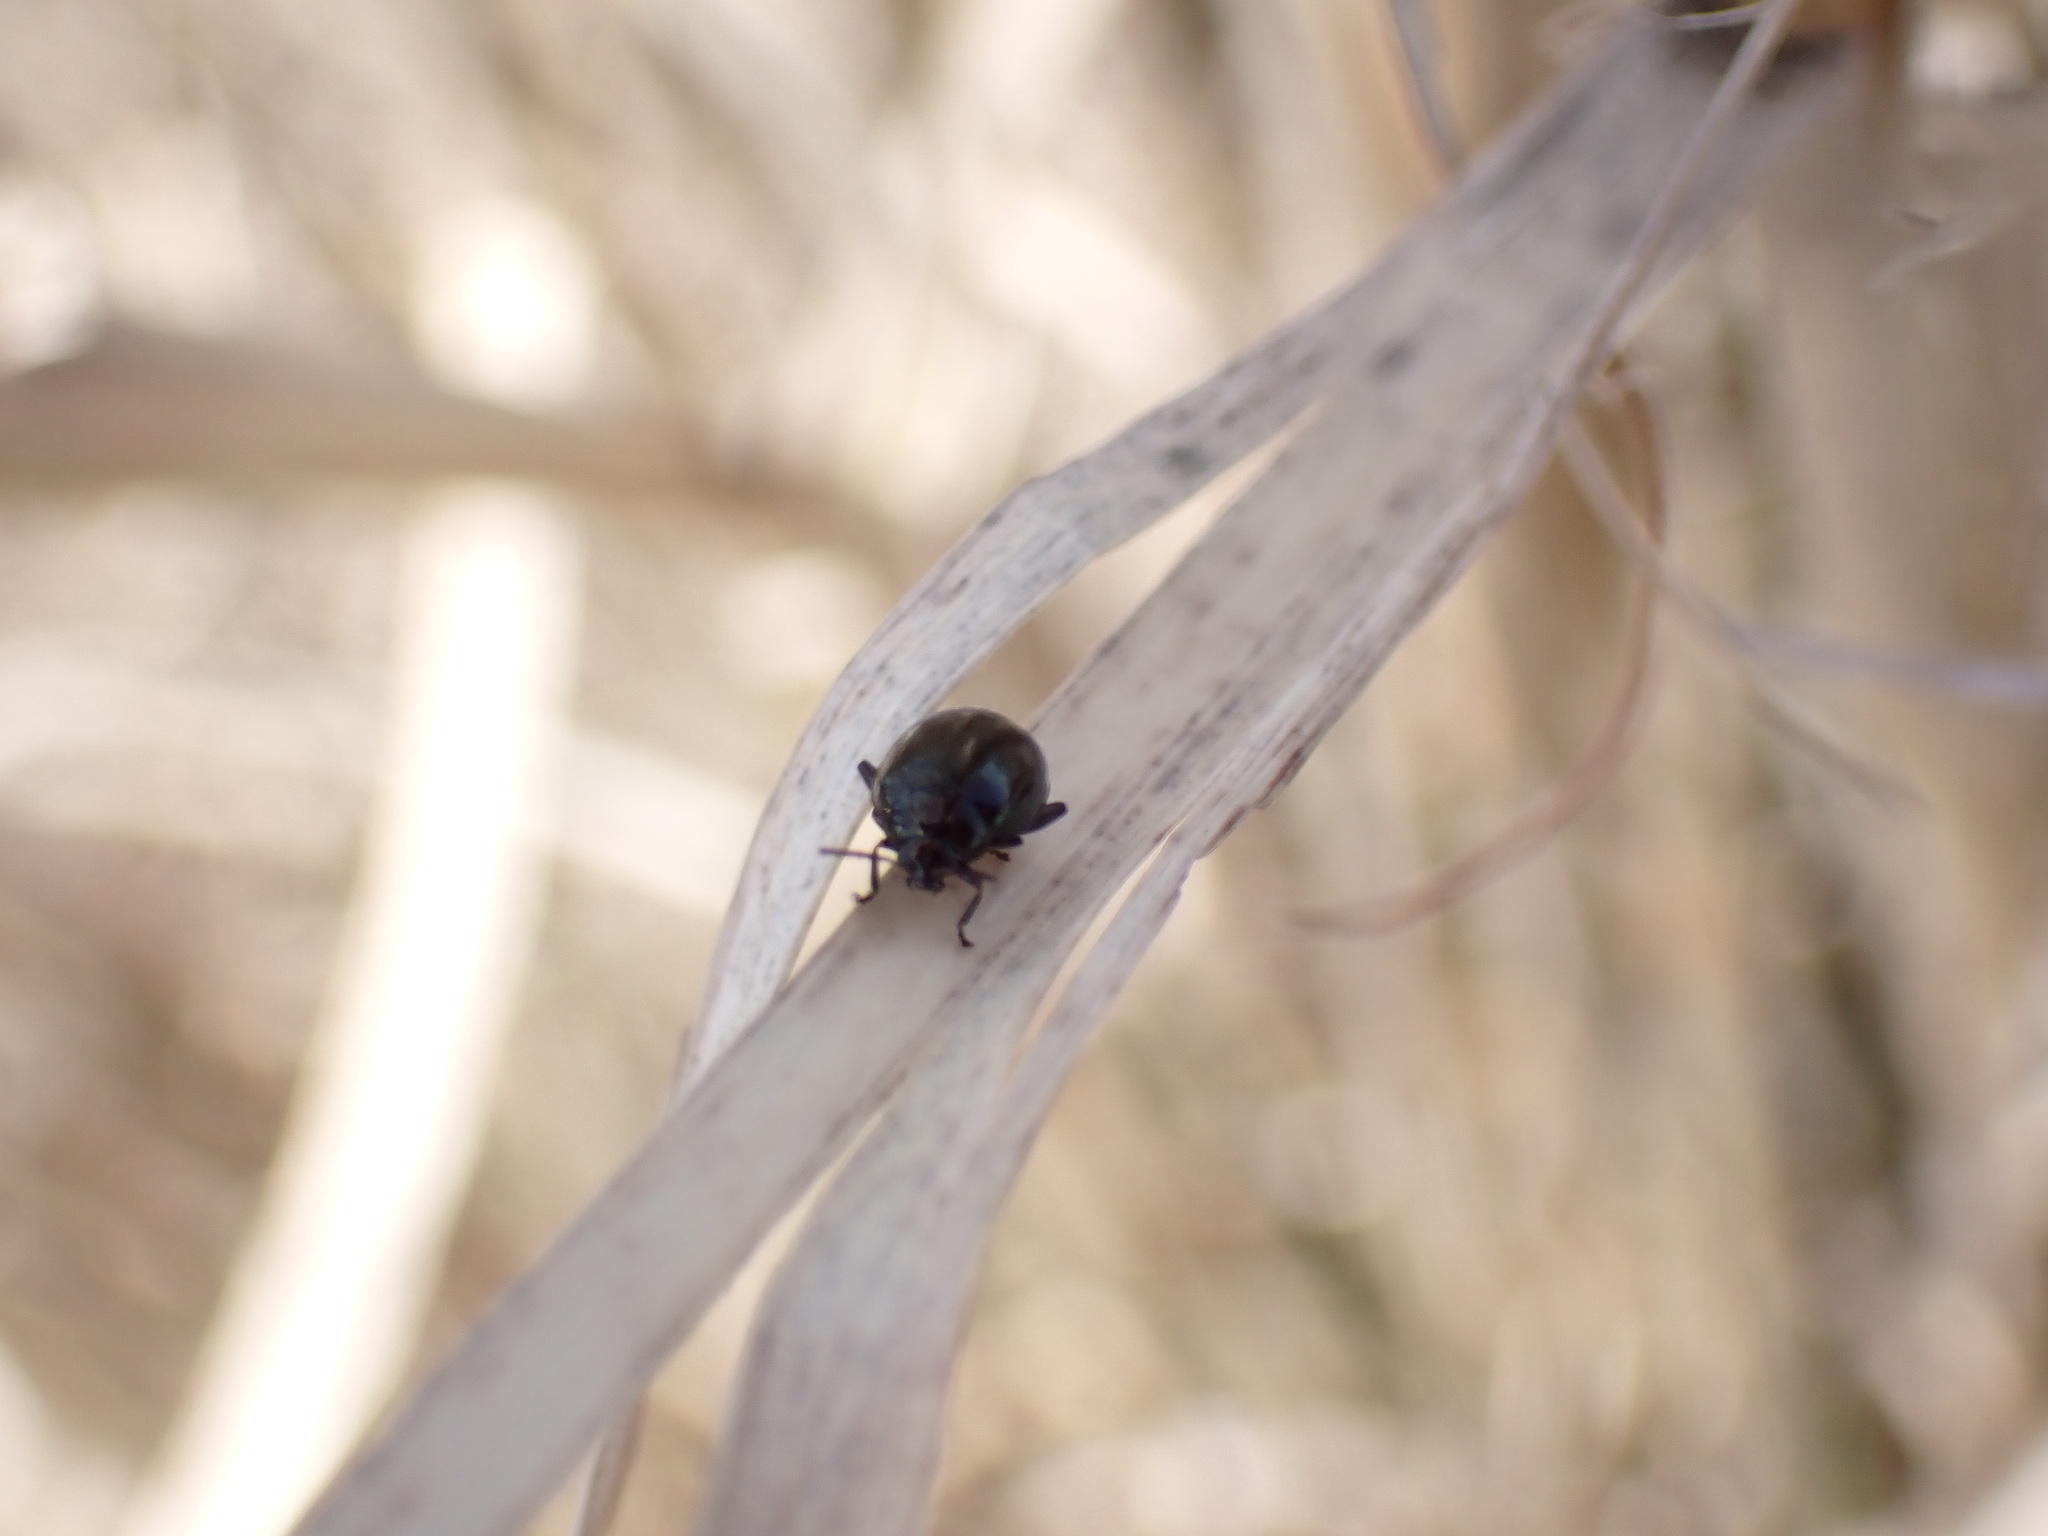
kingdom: Animalia
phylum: Arthropoda
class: Insecta
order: Coleoptera
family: Chrysomelidae
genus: Nonarthra
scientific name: Nonarthra
